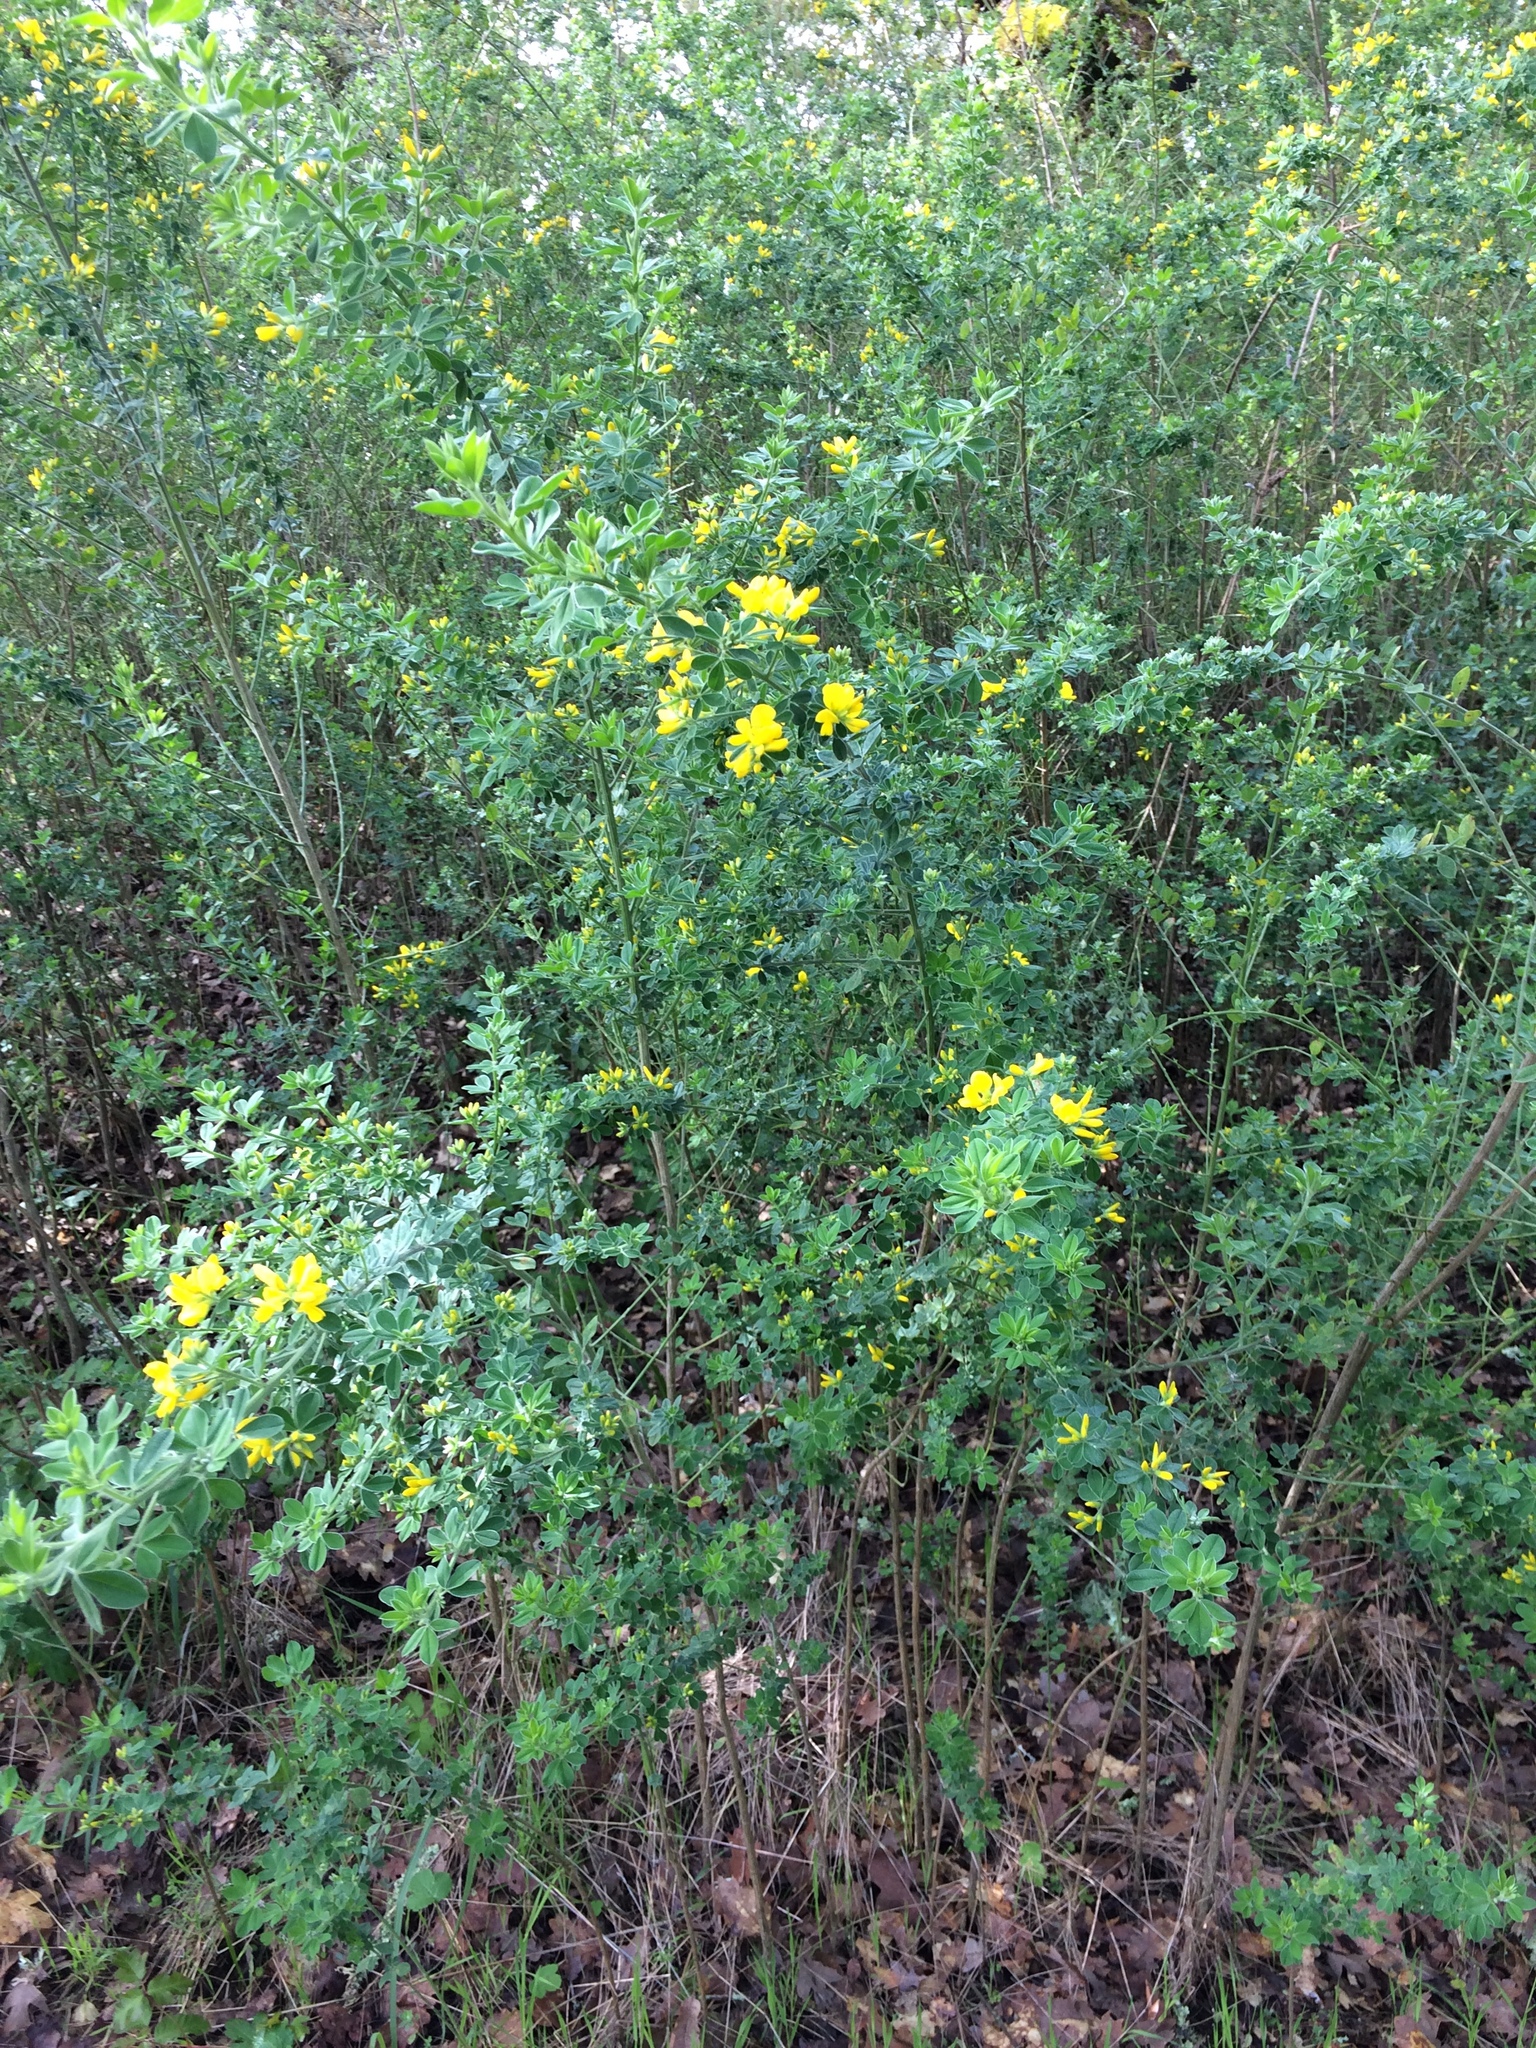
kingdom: Plantae
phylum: Tracheophyta
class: Magnoliopsida
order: Fabales
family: Fabaceae
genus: Genista
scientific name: Genista monspessulana
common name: Montpellier broom
